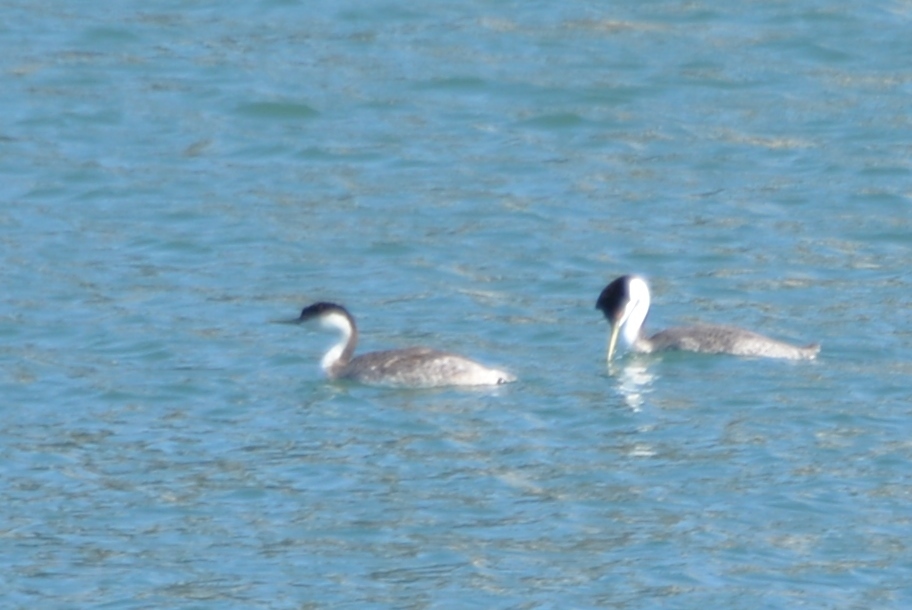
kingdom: Animalia
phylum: Chordata
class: Aves
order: Podicipediformes
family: Podicipedidae
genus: Aechmophorus
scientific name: Aechmophorus occidentalis
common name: Western grebe
